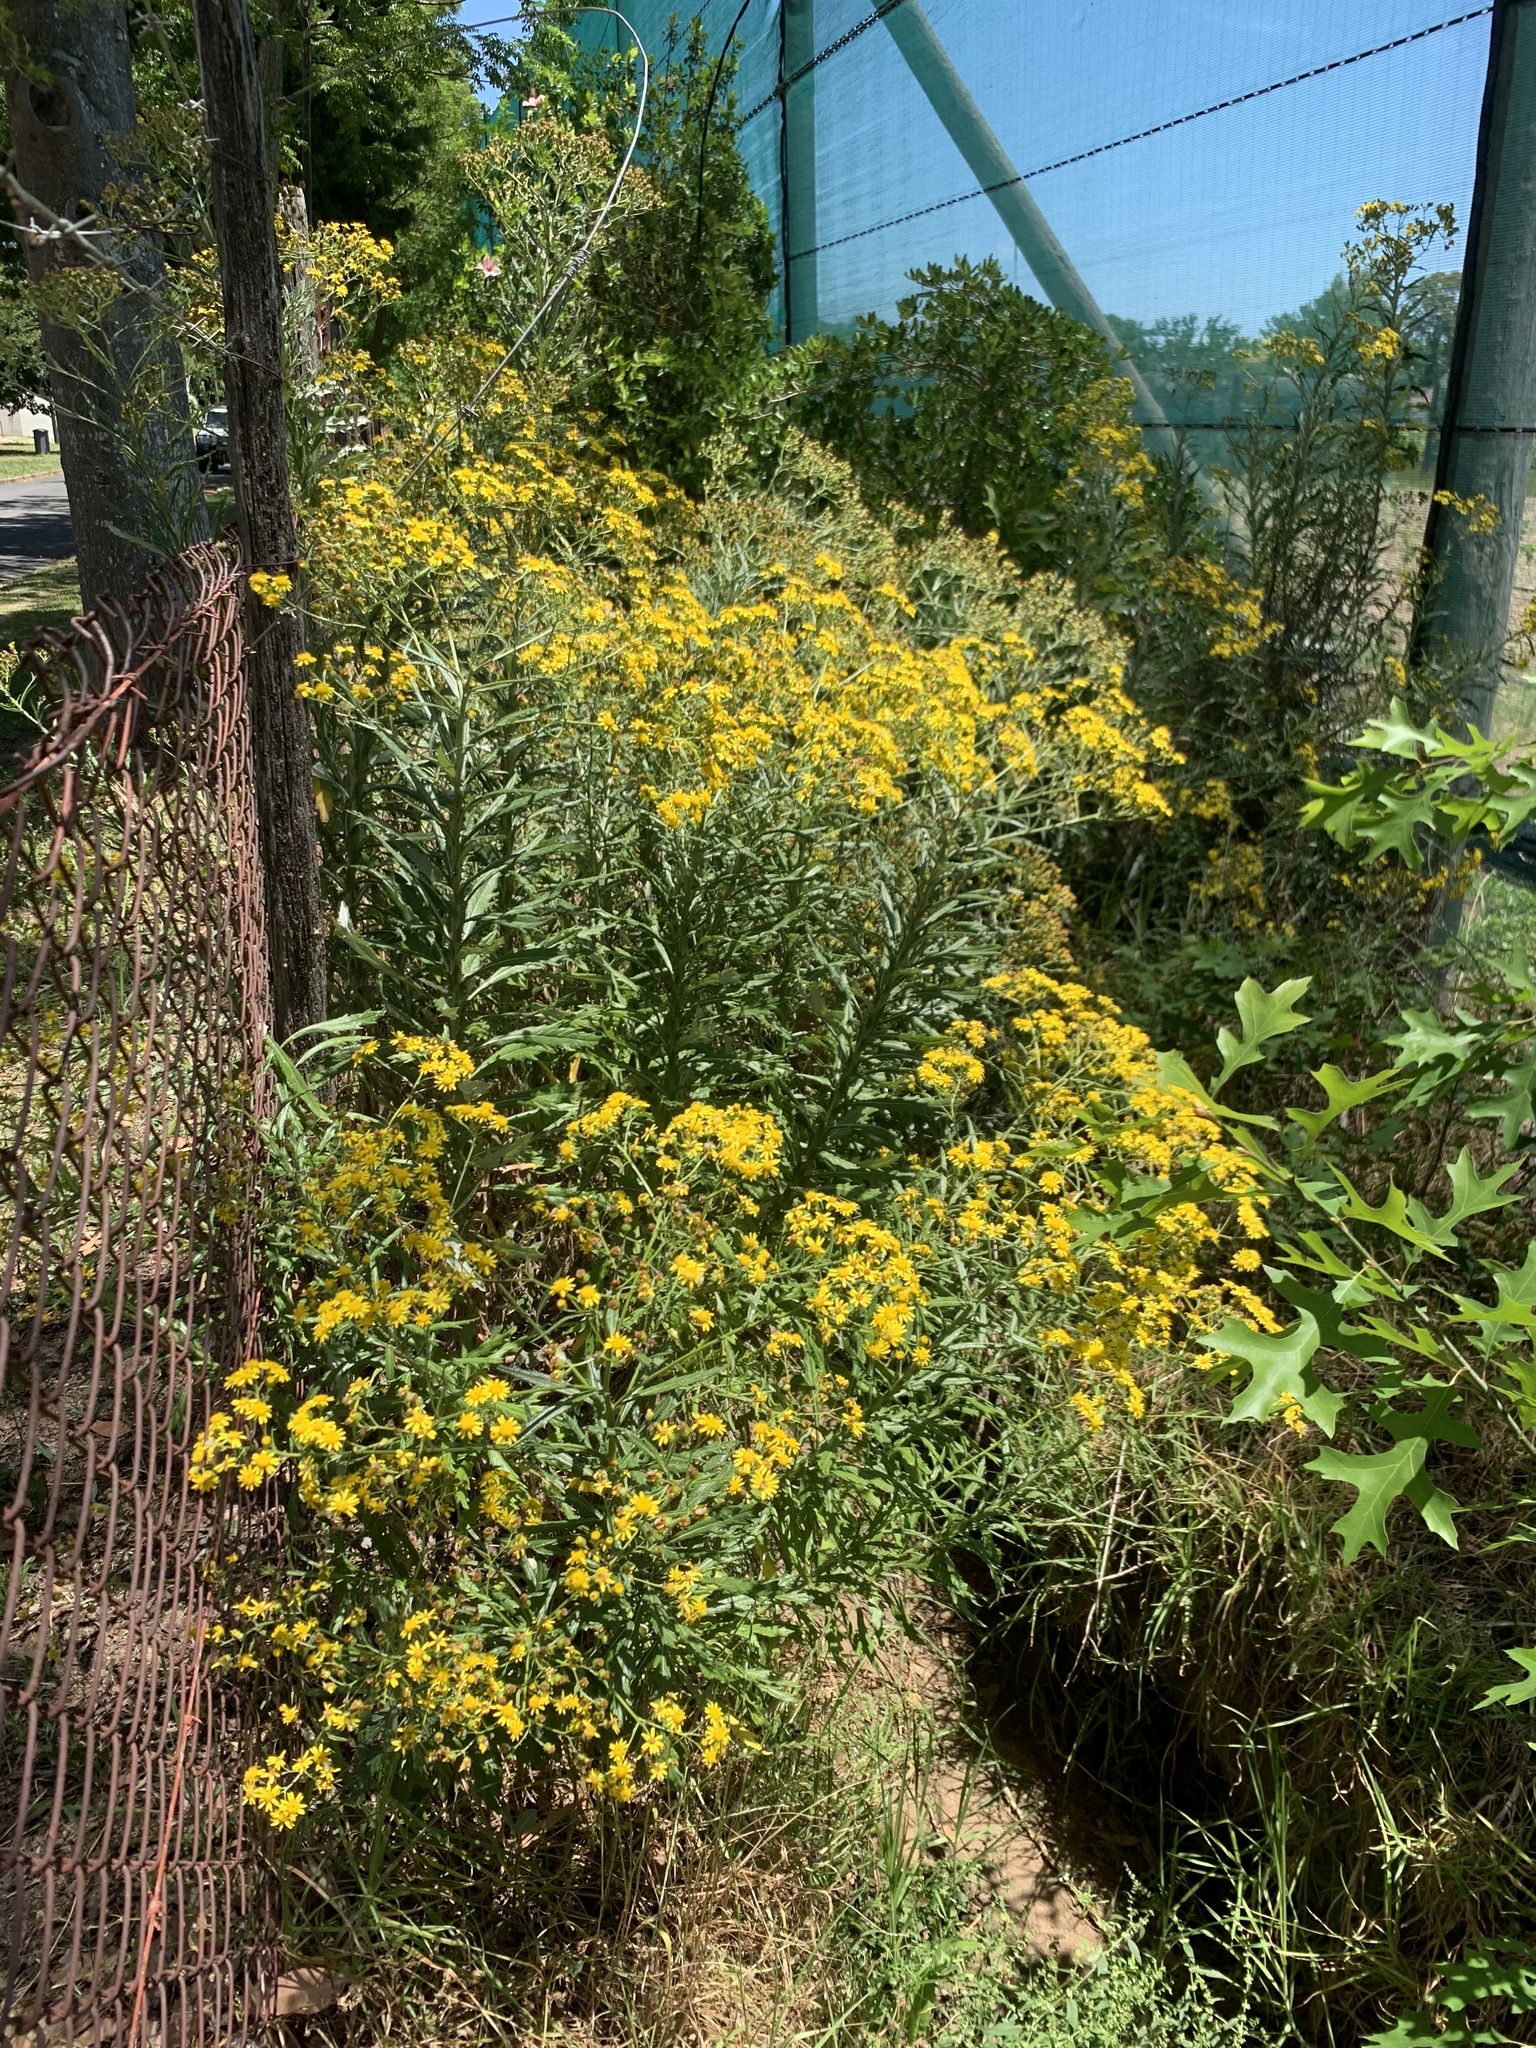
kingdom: Plantae
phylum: Tracheophyta
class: Magnoliopsida
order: Asterales
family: Asteraceae
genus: Senecio
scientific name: Senecio pterophorus
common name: Shoddy ragwort
